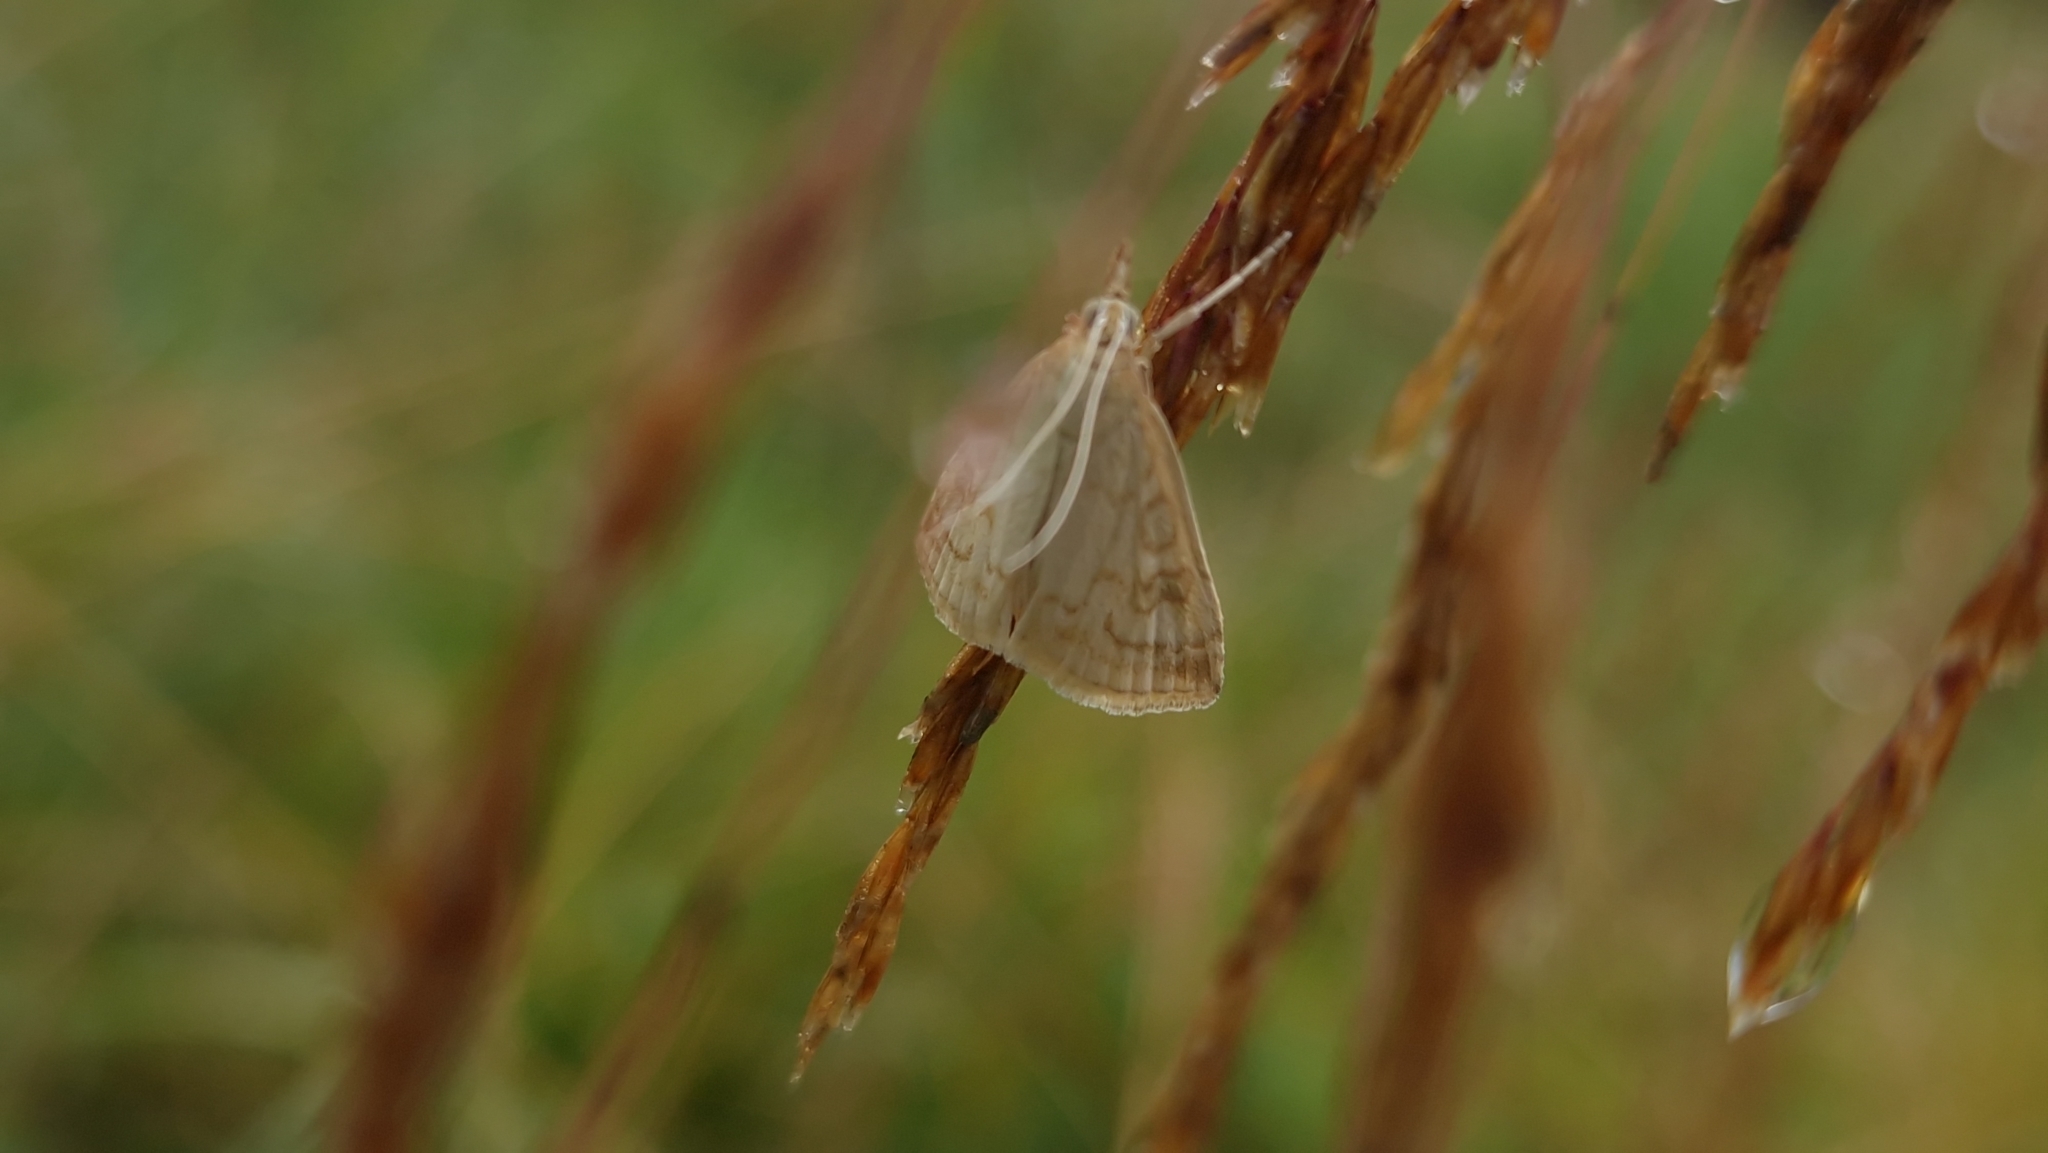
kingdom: Animalia
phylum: Arthropoda
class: Insecta
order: Lepidoptera
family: Crambidae
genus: Udea
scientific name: Udea lutealis
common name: Pale straw pearl
